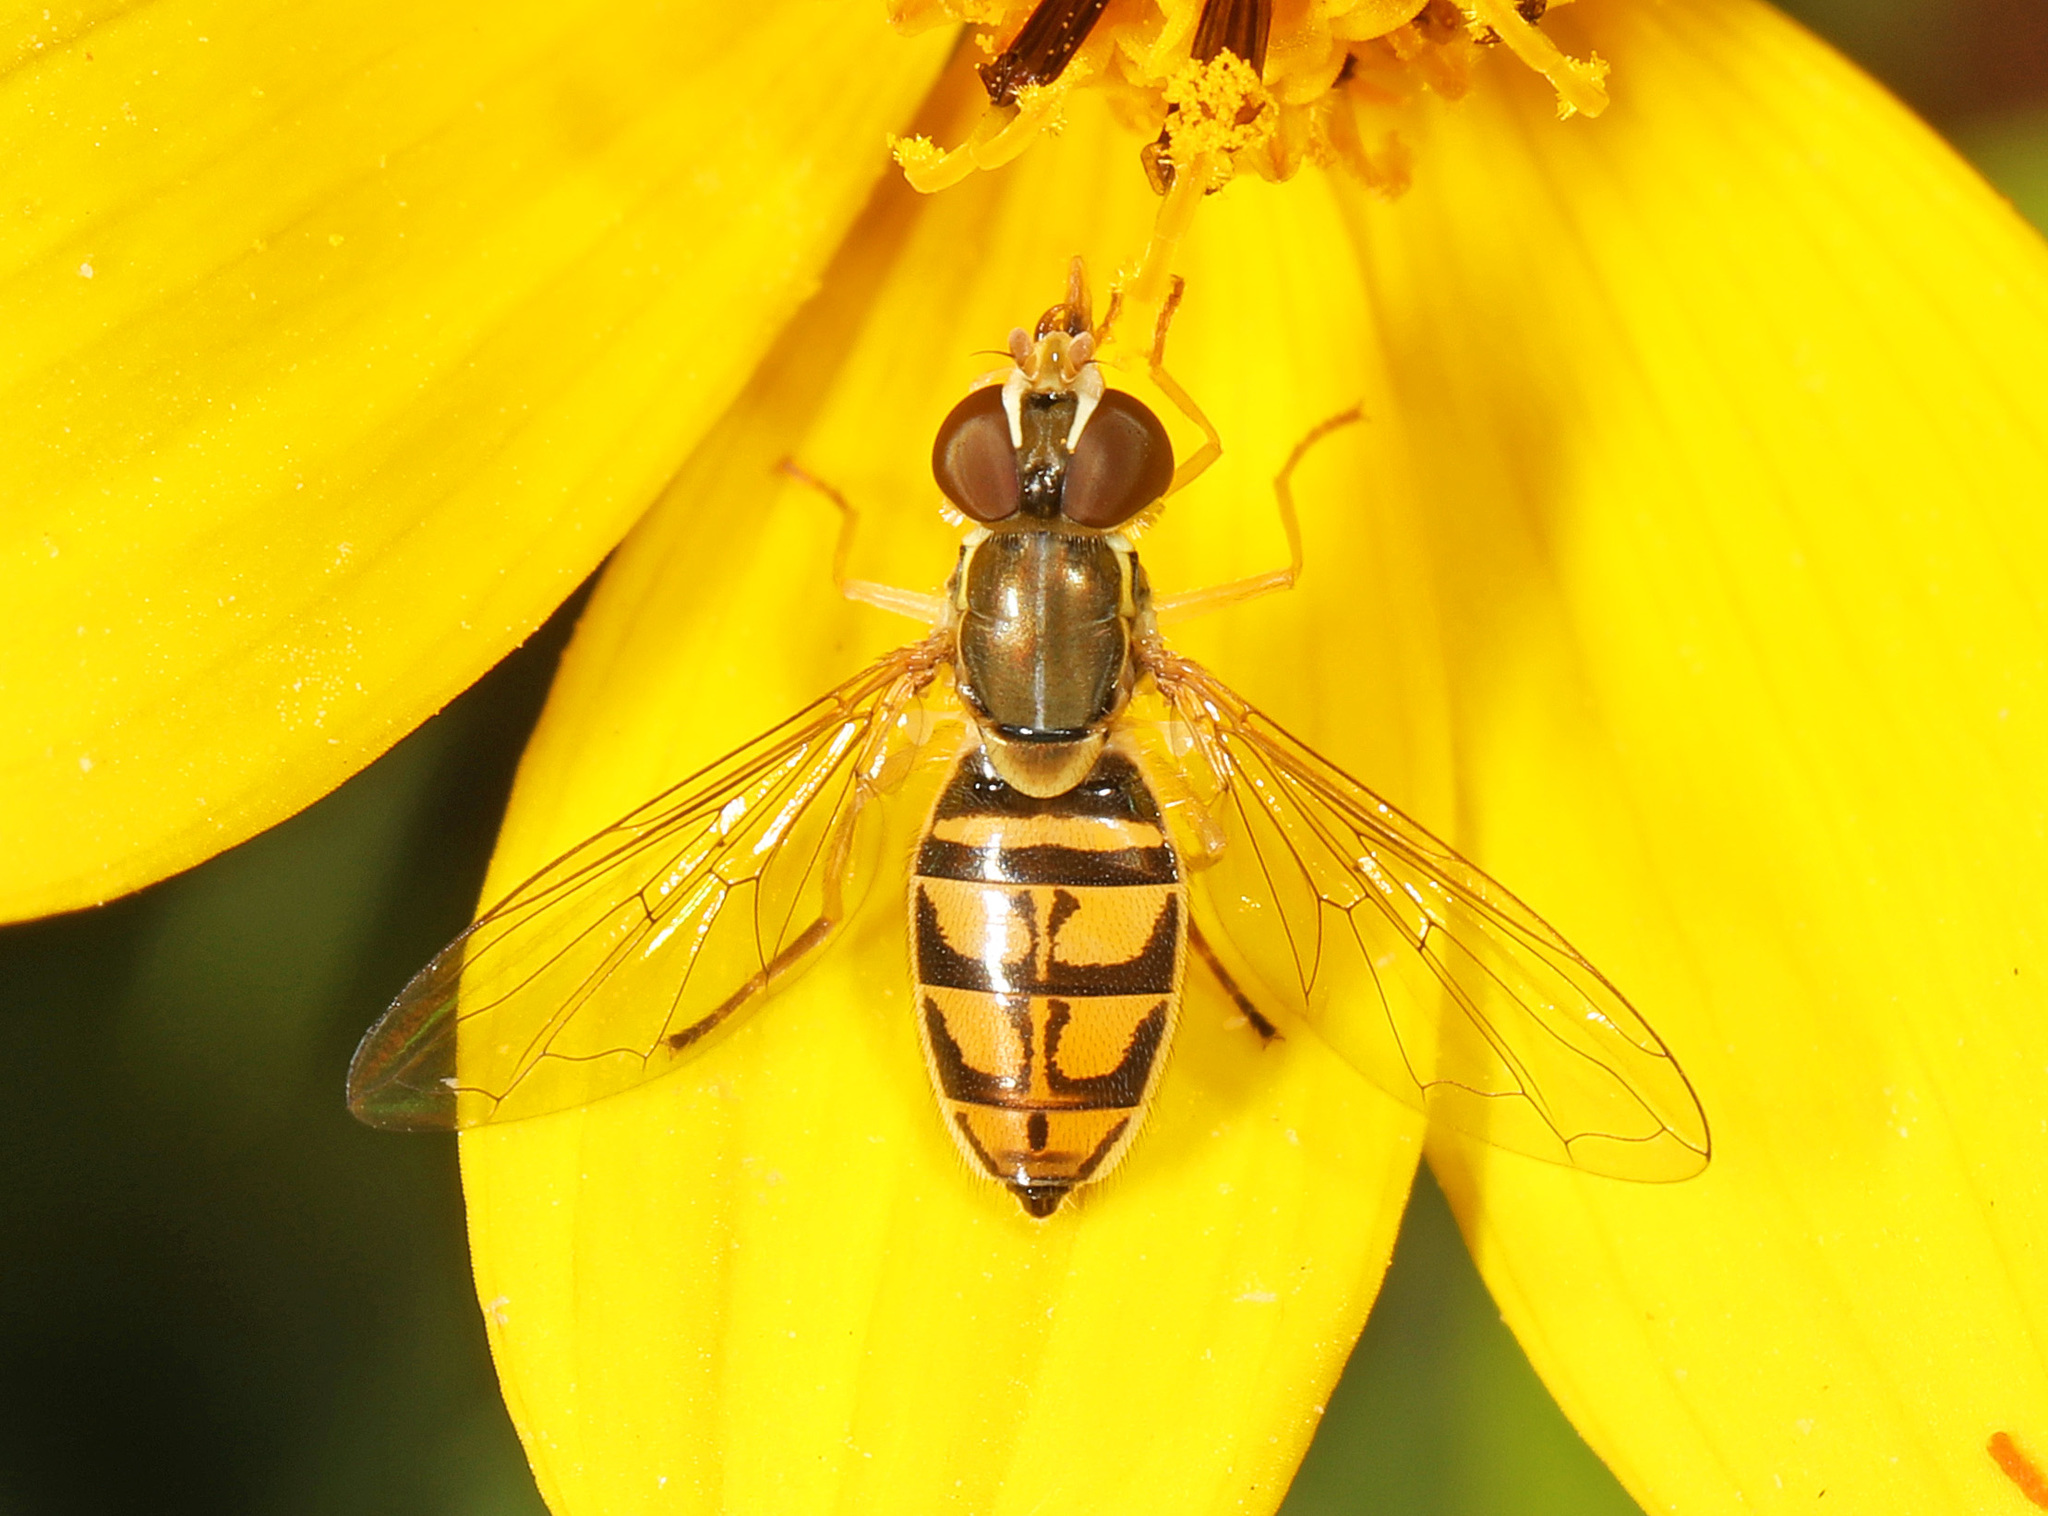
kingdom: Animalia
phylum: Arthropoda
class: Insecta
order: Diptera
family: Syrphidae
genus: Toxomerus
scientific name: Toxomerus marginatus
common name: Syrphid fly
